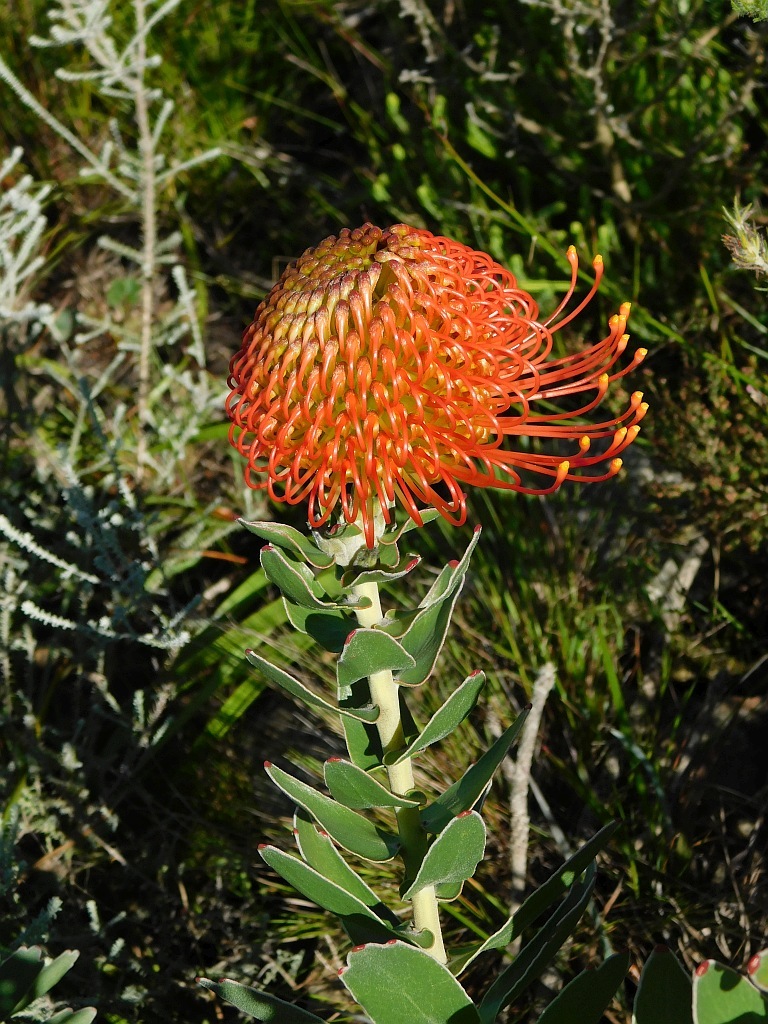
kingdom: Plantae
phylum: Tracheophyta
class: Magnoliopsida
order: Proteales
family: Proteaceae
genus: Leucospermum
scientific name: Leucospermum cordifolium
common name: Red pincushion-protea
